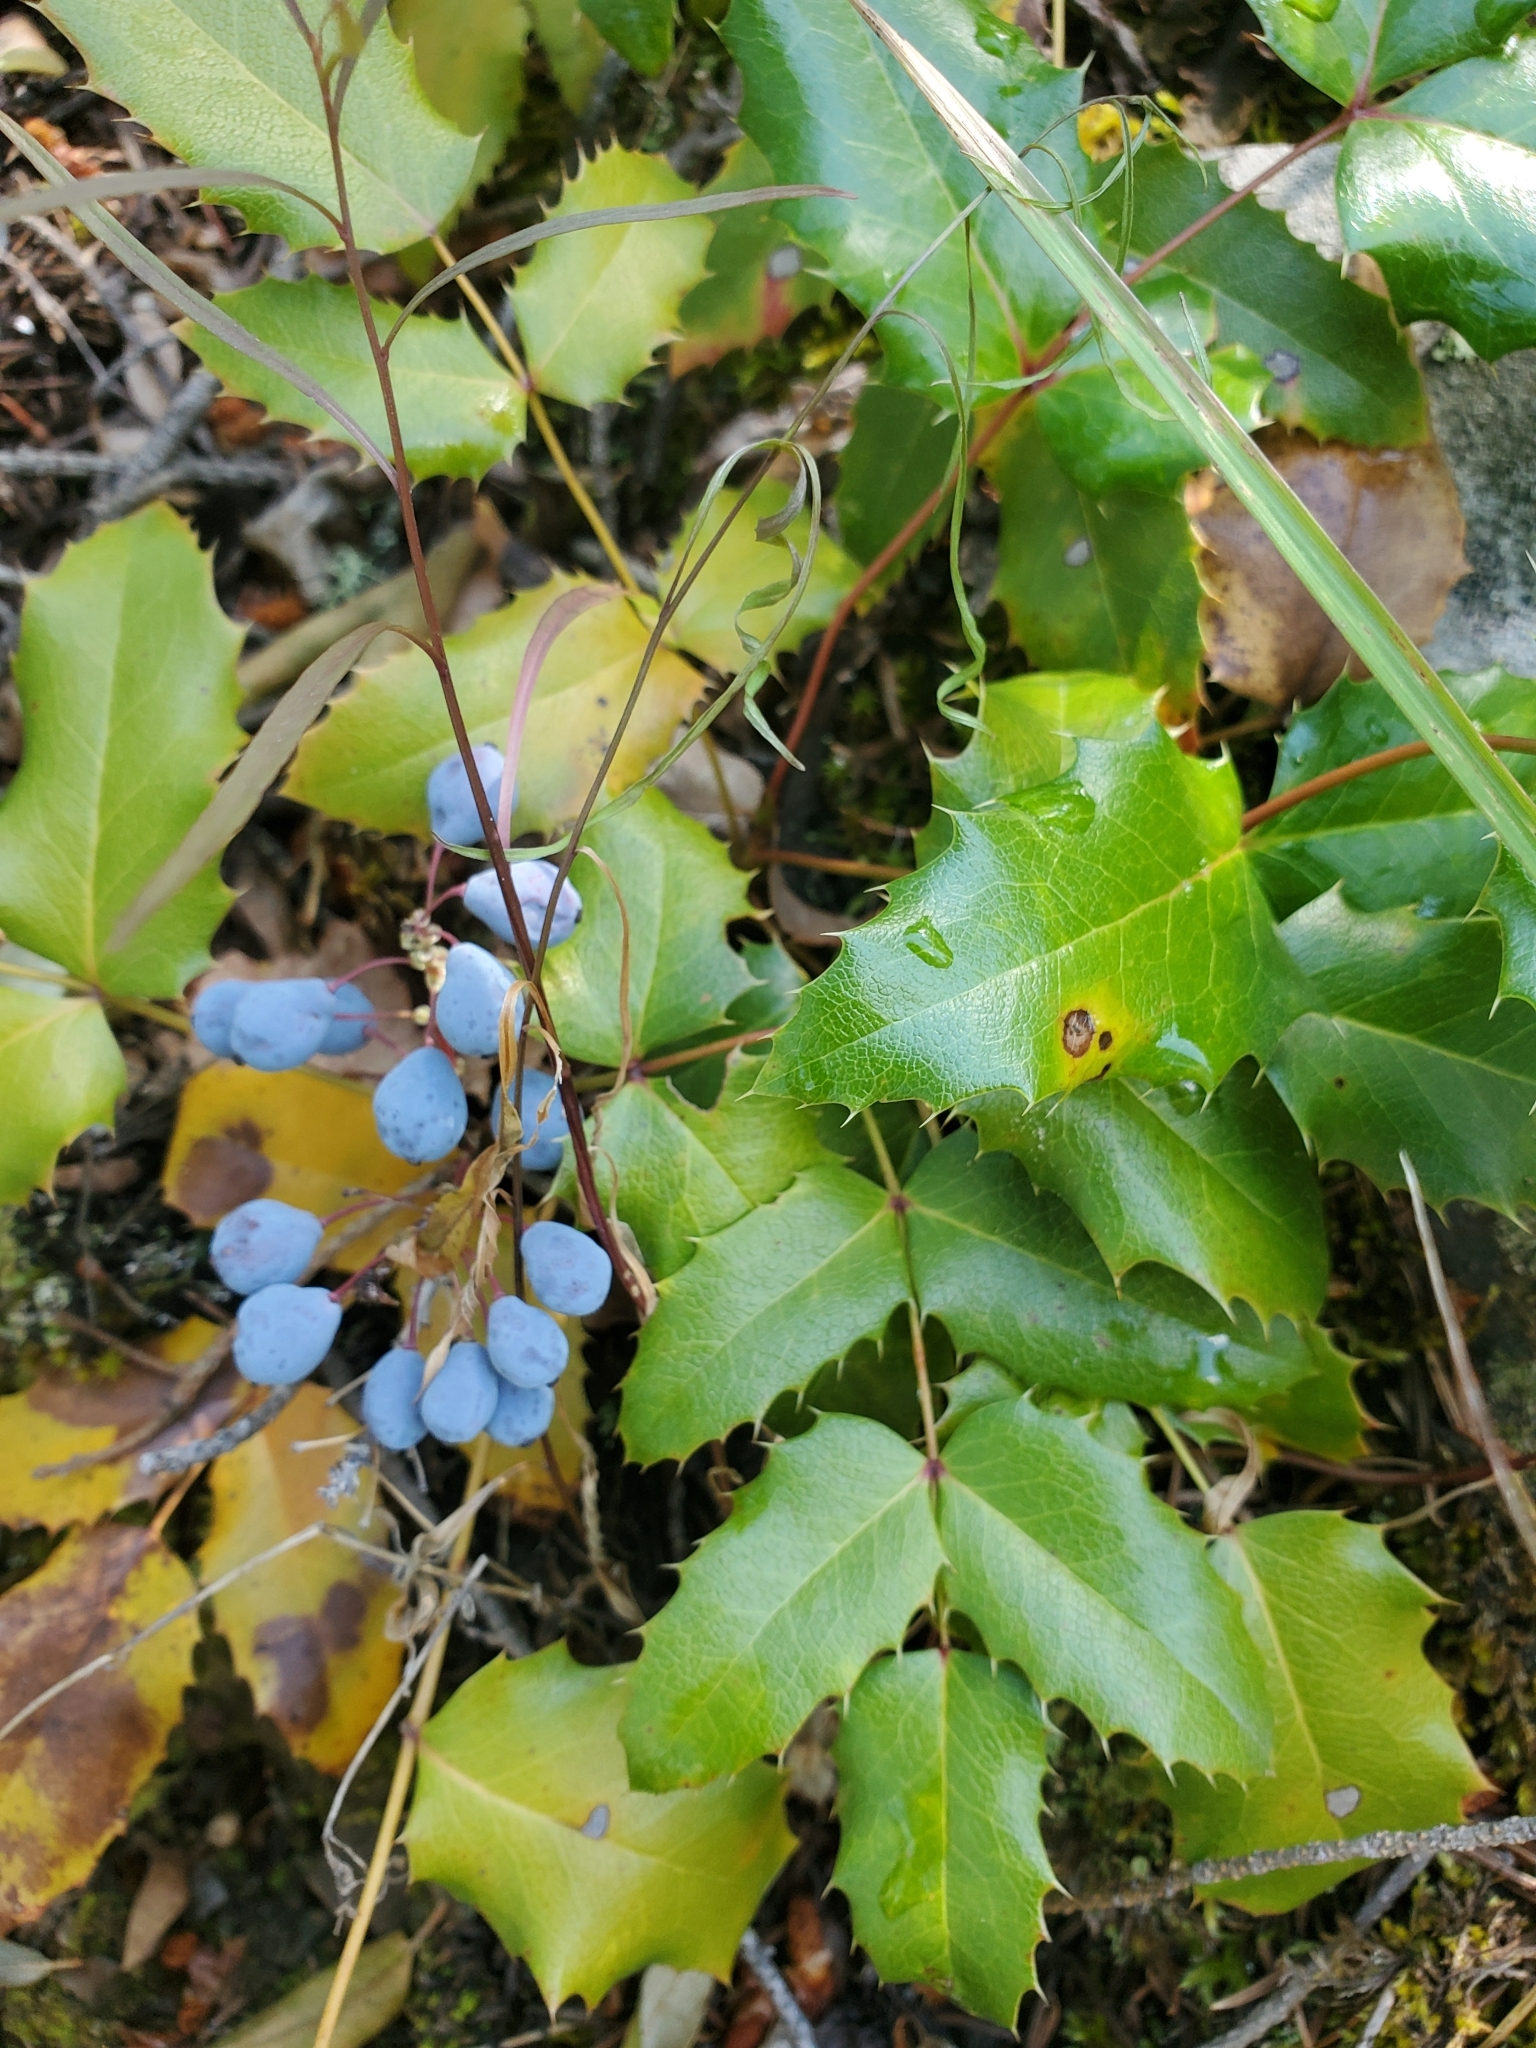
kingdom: Plantae
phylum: Tracheophyta
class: Magnoliopsida
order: Ranunculales
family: Berberidaceae
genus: Mahonia
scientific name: Mahonia repens
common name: Creeping oregon-grape
